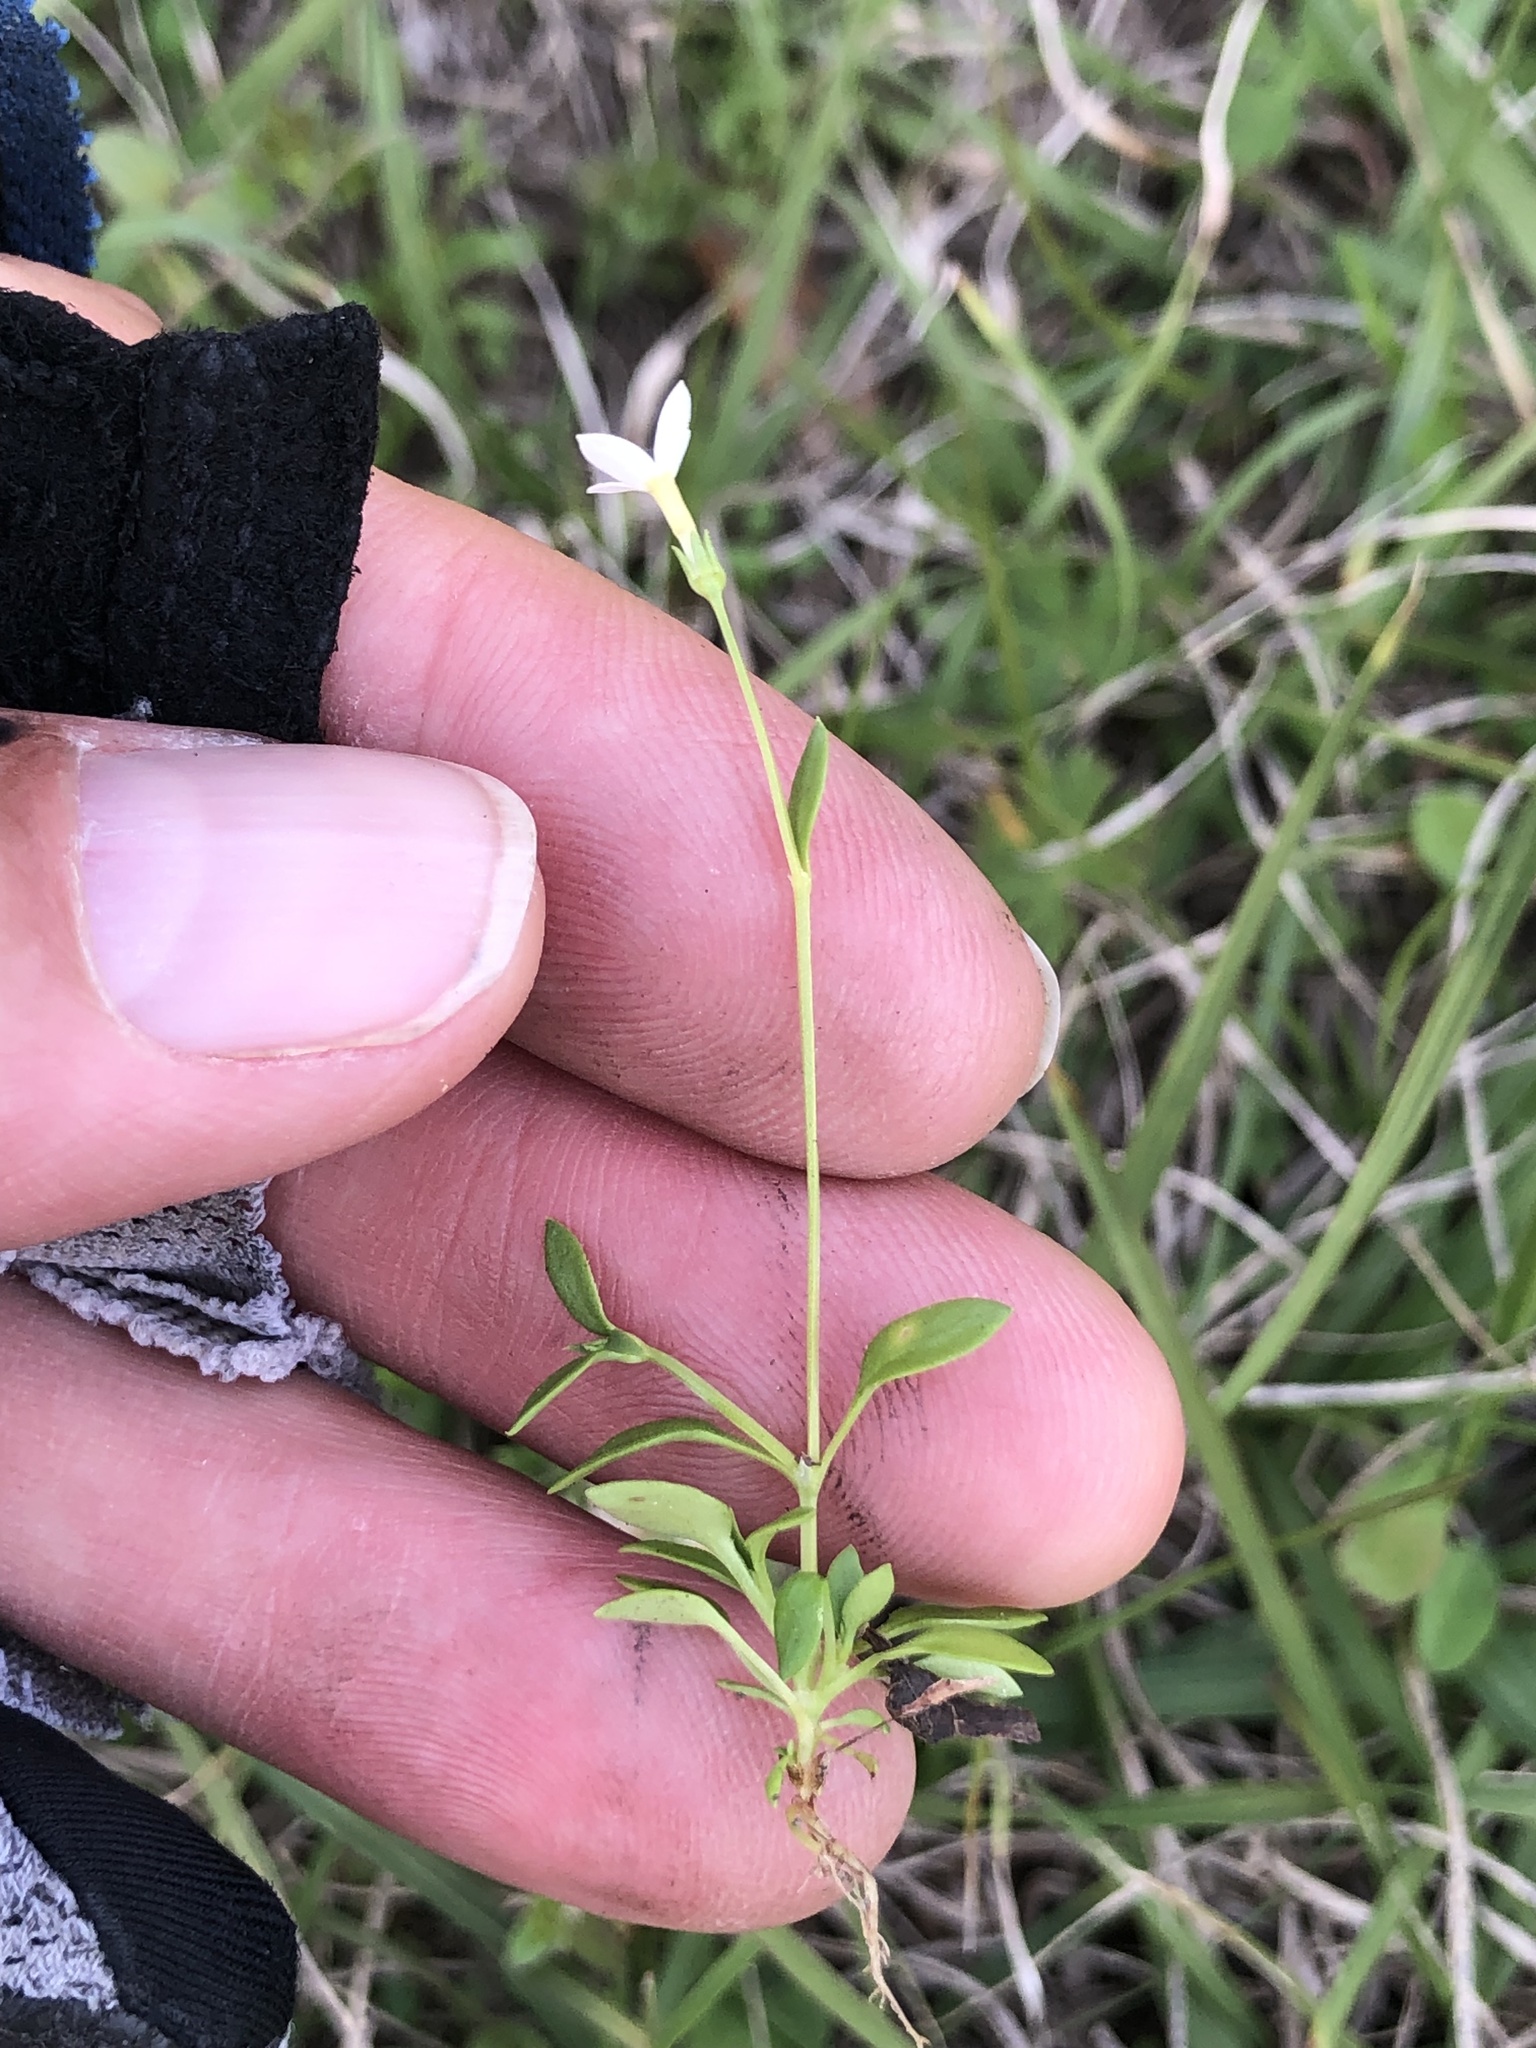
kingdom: Plantae
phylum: Tracheophyta
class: Magnoliopsida
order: Gentianales
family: Rubiaceae
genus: Houstonia
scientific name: Houstonia pusilla
